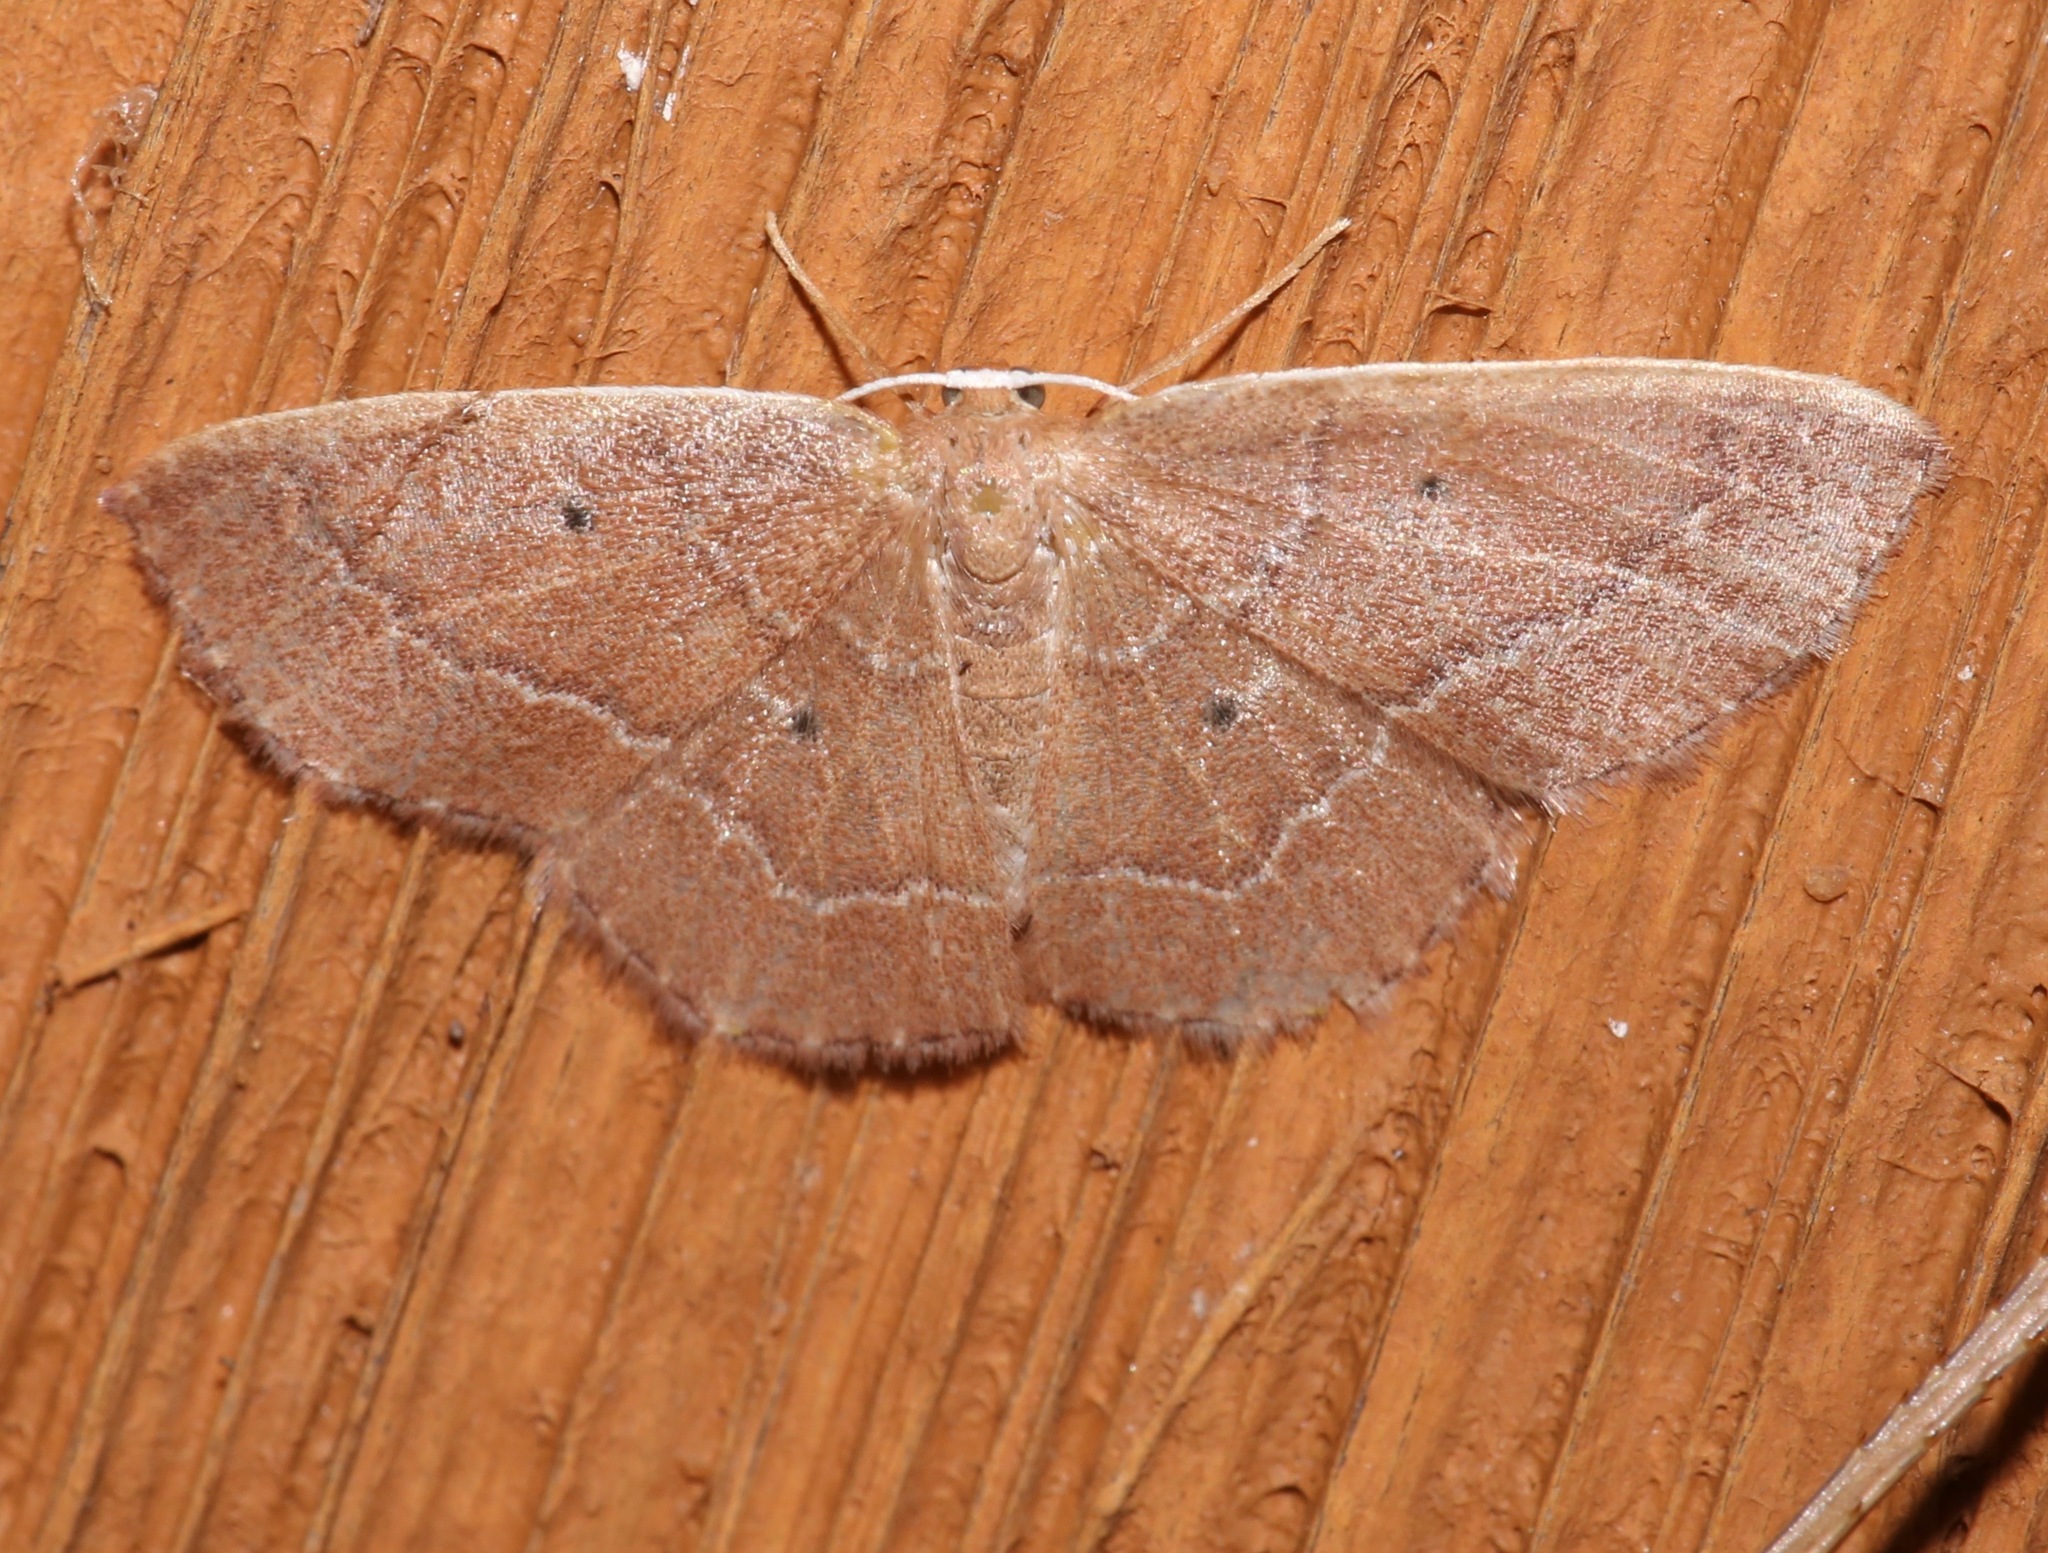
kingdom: Animalia
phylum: Arthropoda
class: Insecta
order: Lepidoptera
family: Geometridae
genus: Nemoria
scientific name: Nemoria elfa
